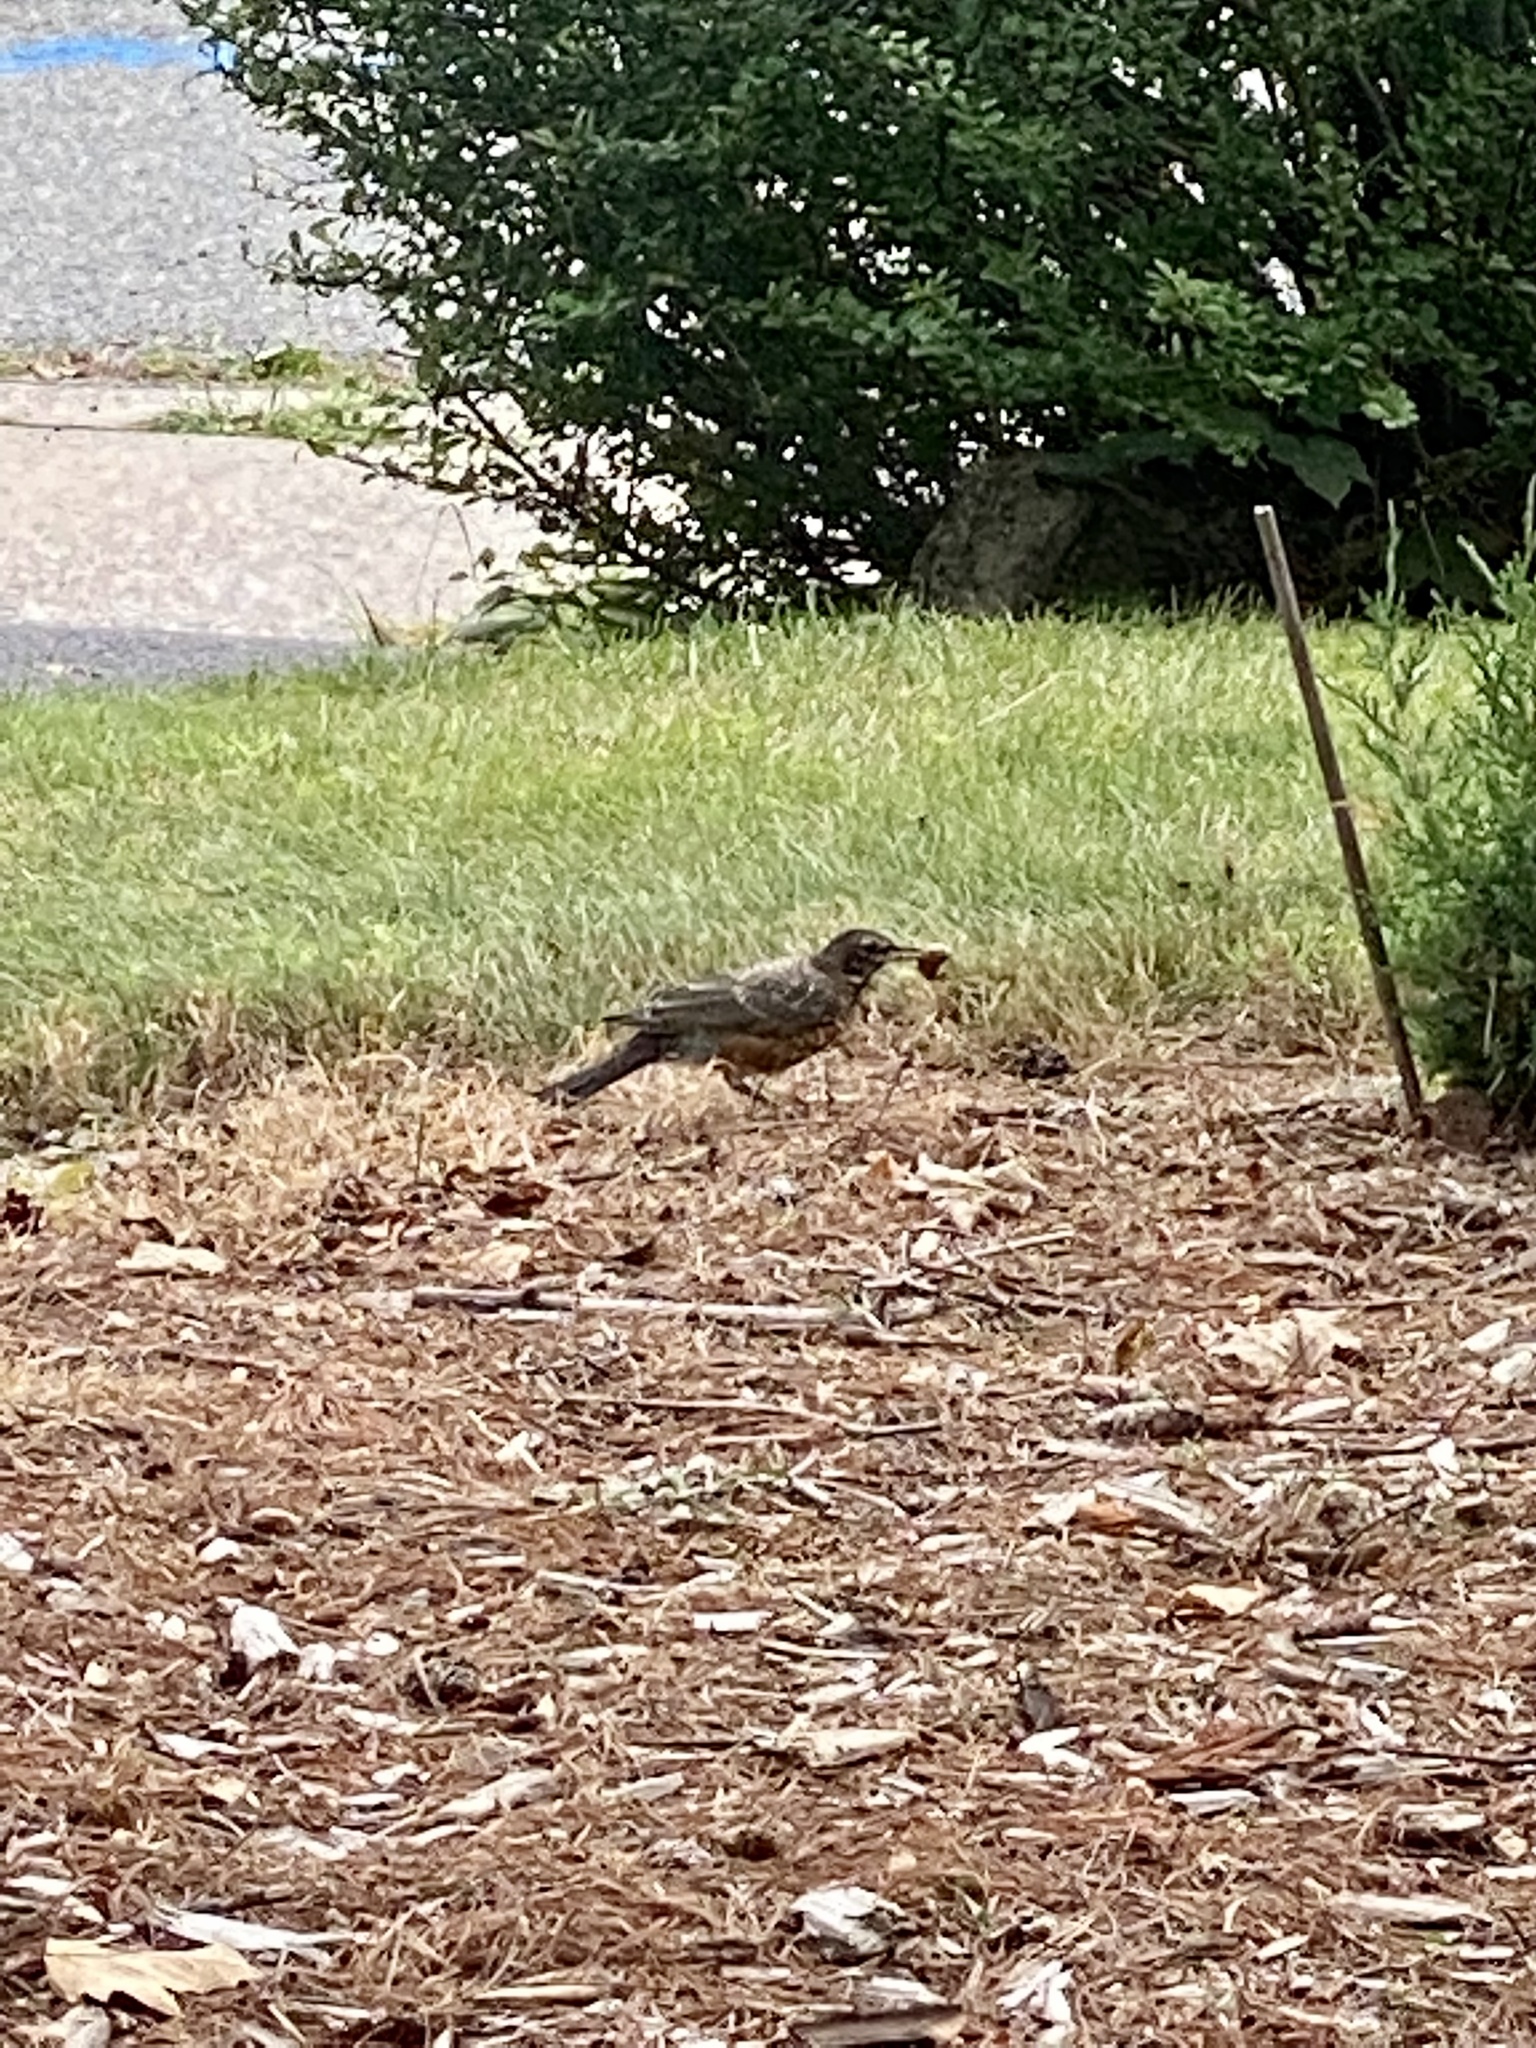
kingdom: Animalia
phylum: Chordata
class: Aves
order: Passeriformes
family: Turdidae
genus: Turdus
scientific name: Turdus migratorius
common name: American robin
